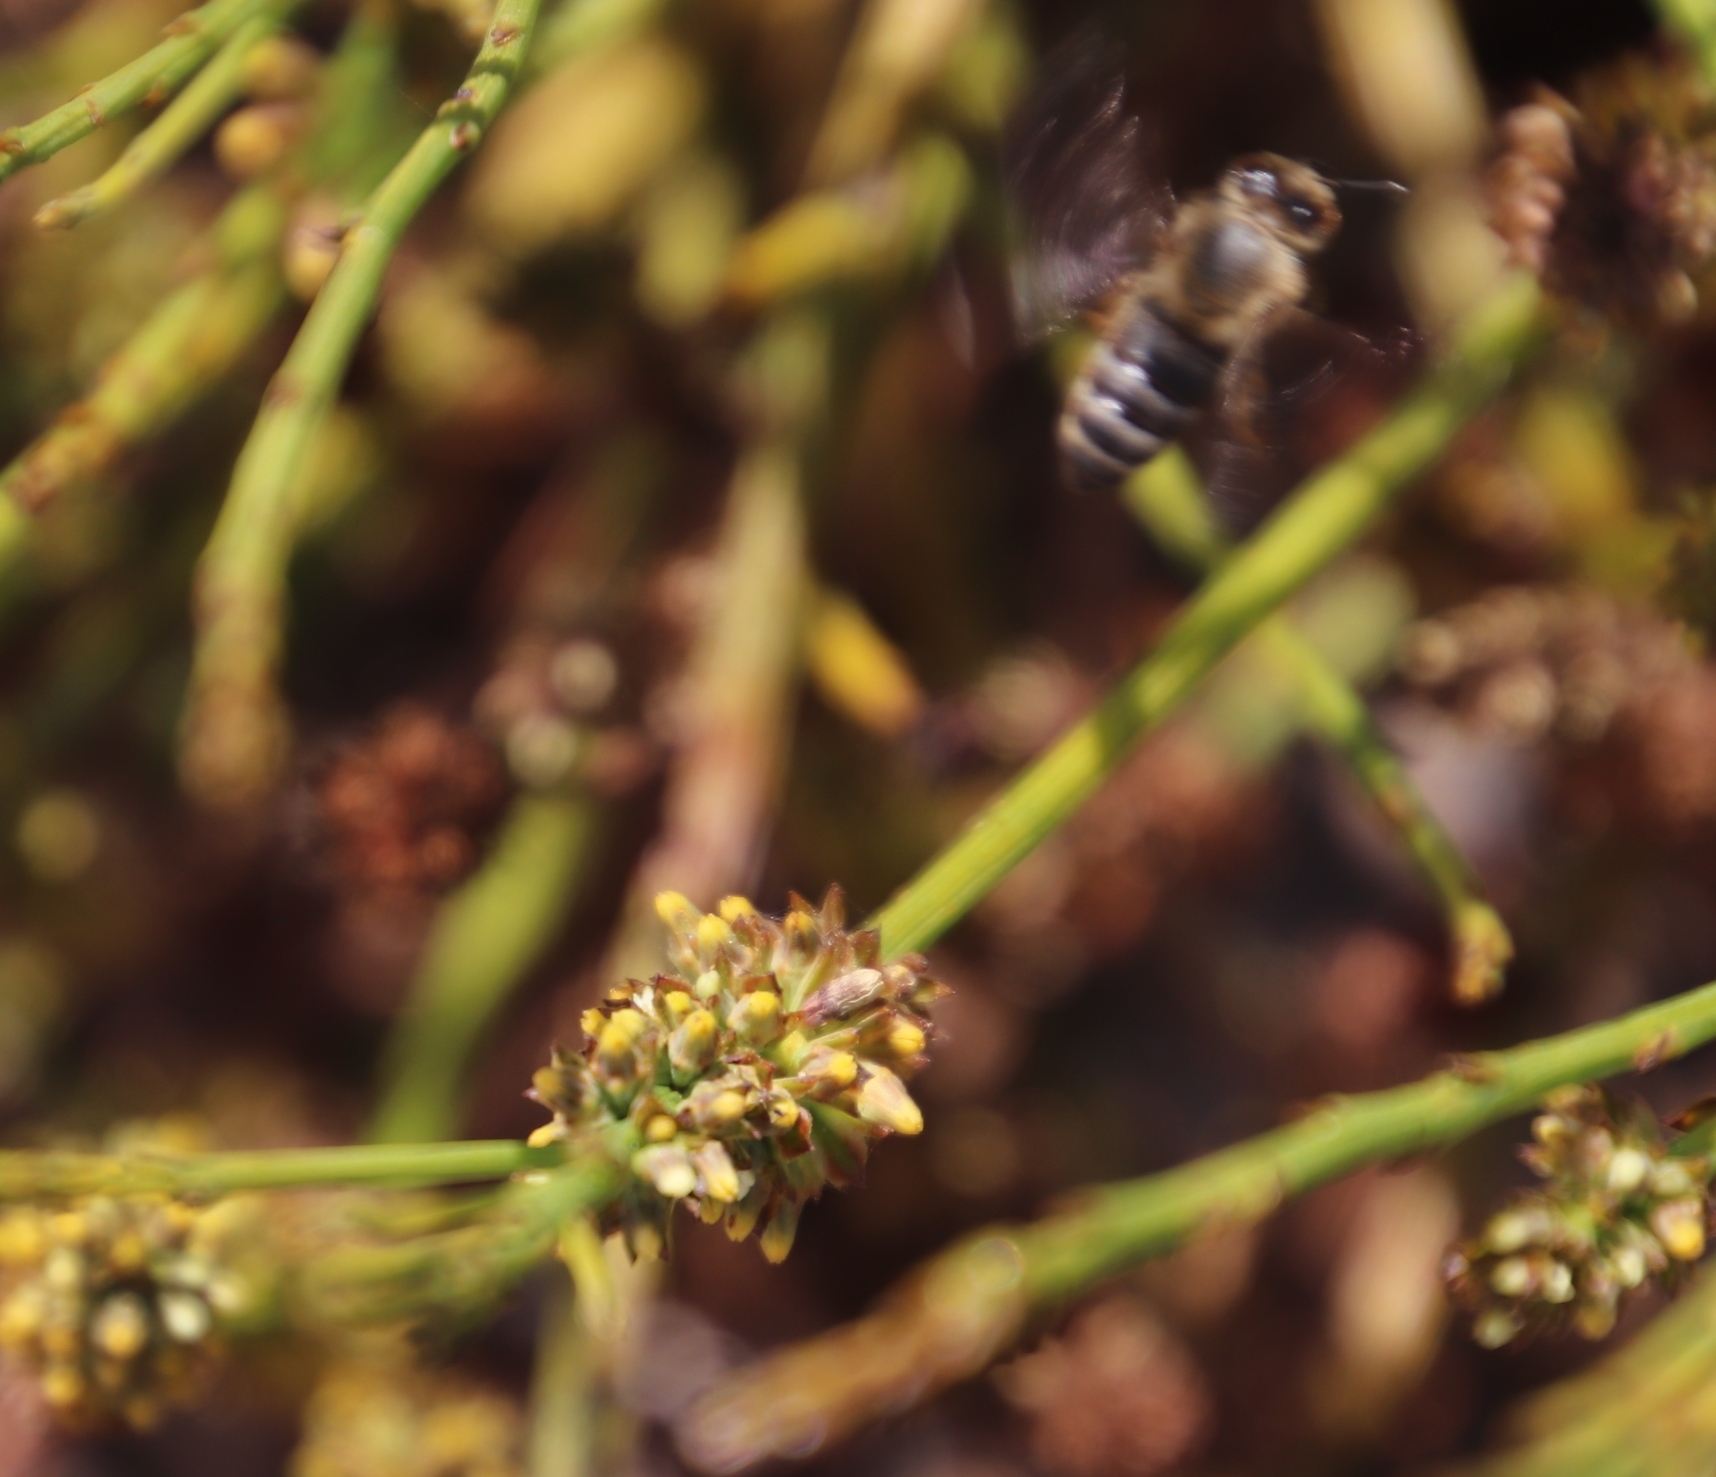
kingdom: Plantae
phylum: Tracheophyta
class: Magnoliopsida
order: Santalales
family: Thesiaceae
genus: Thesium
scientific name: Thesium aggregatum
